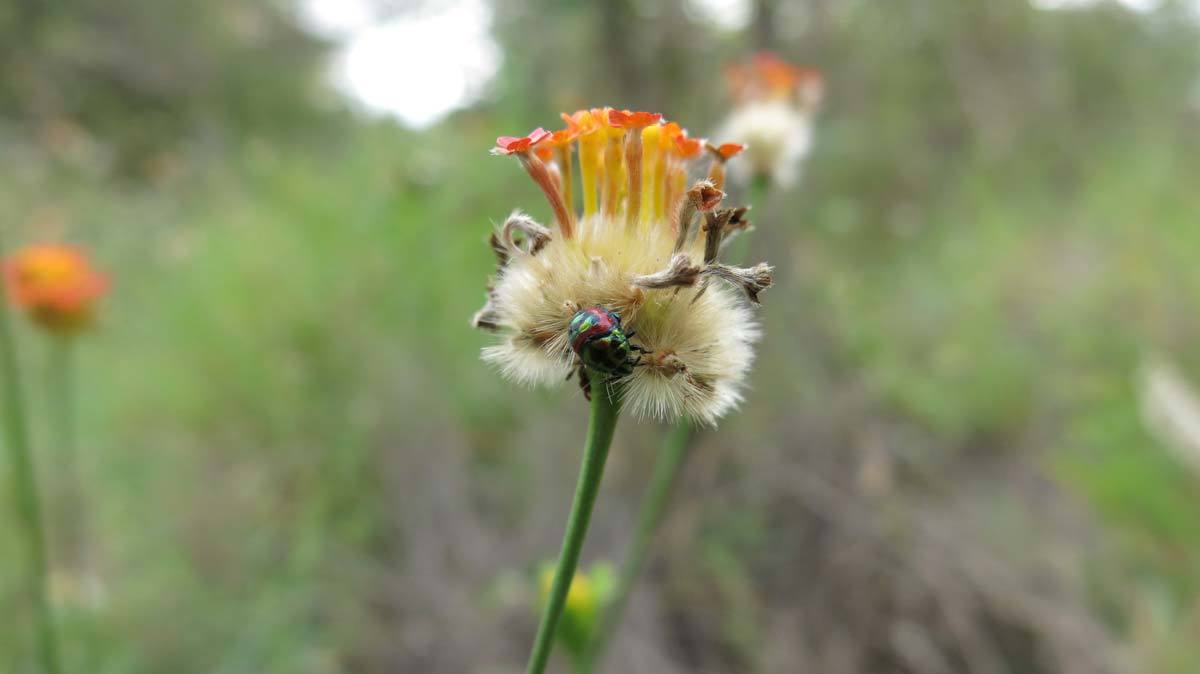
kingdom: Plantae
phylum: Tracheophyta
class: Magnoliopsida
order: Malvales
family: Thymelaeaceae
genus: Gnidia
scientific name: Gnidia rubescens
